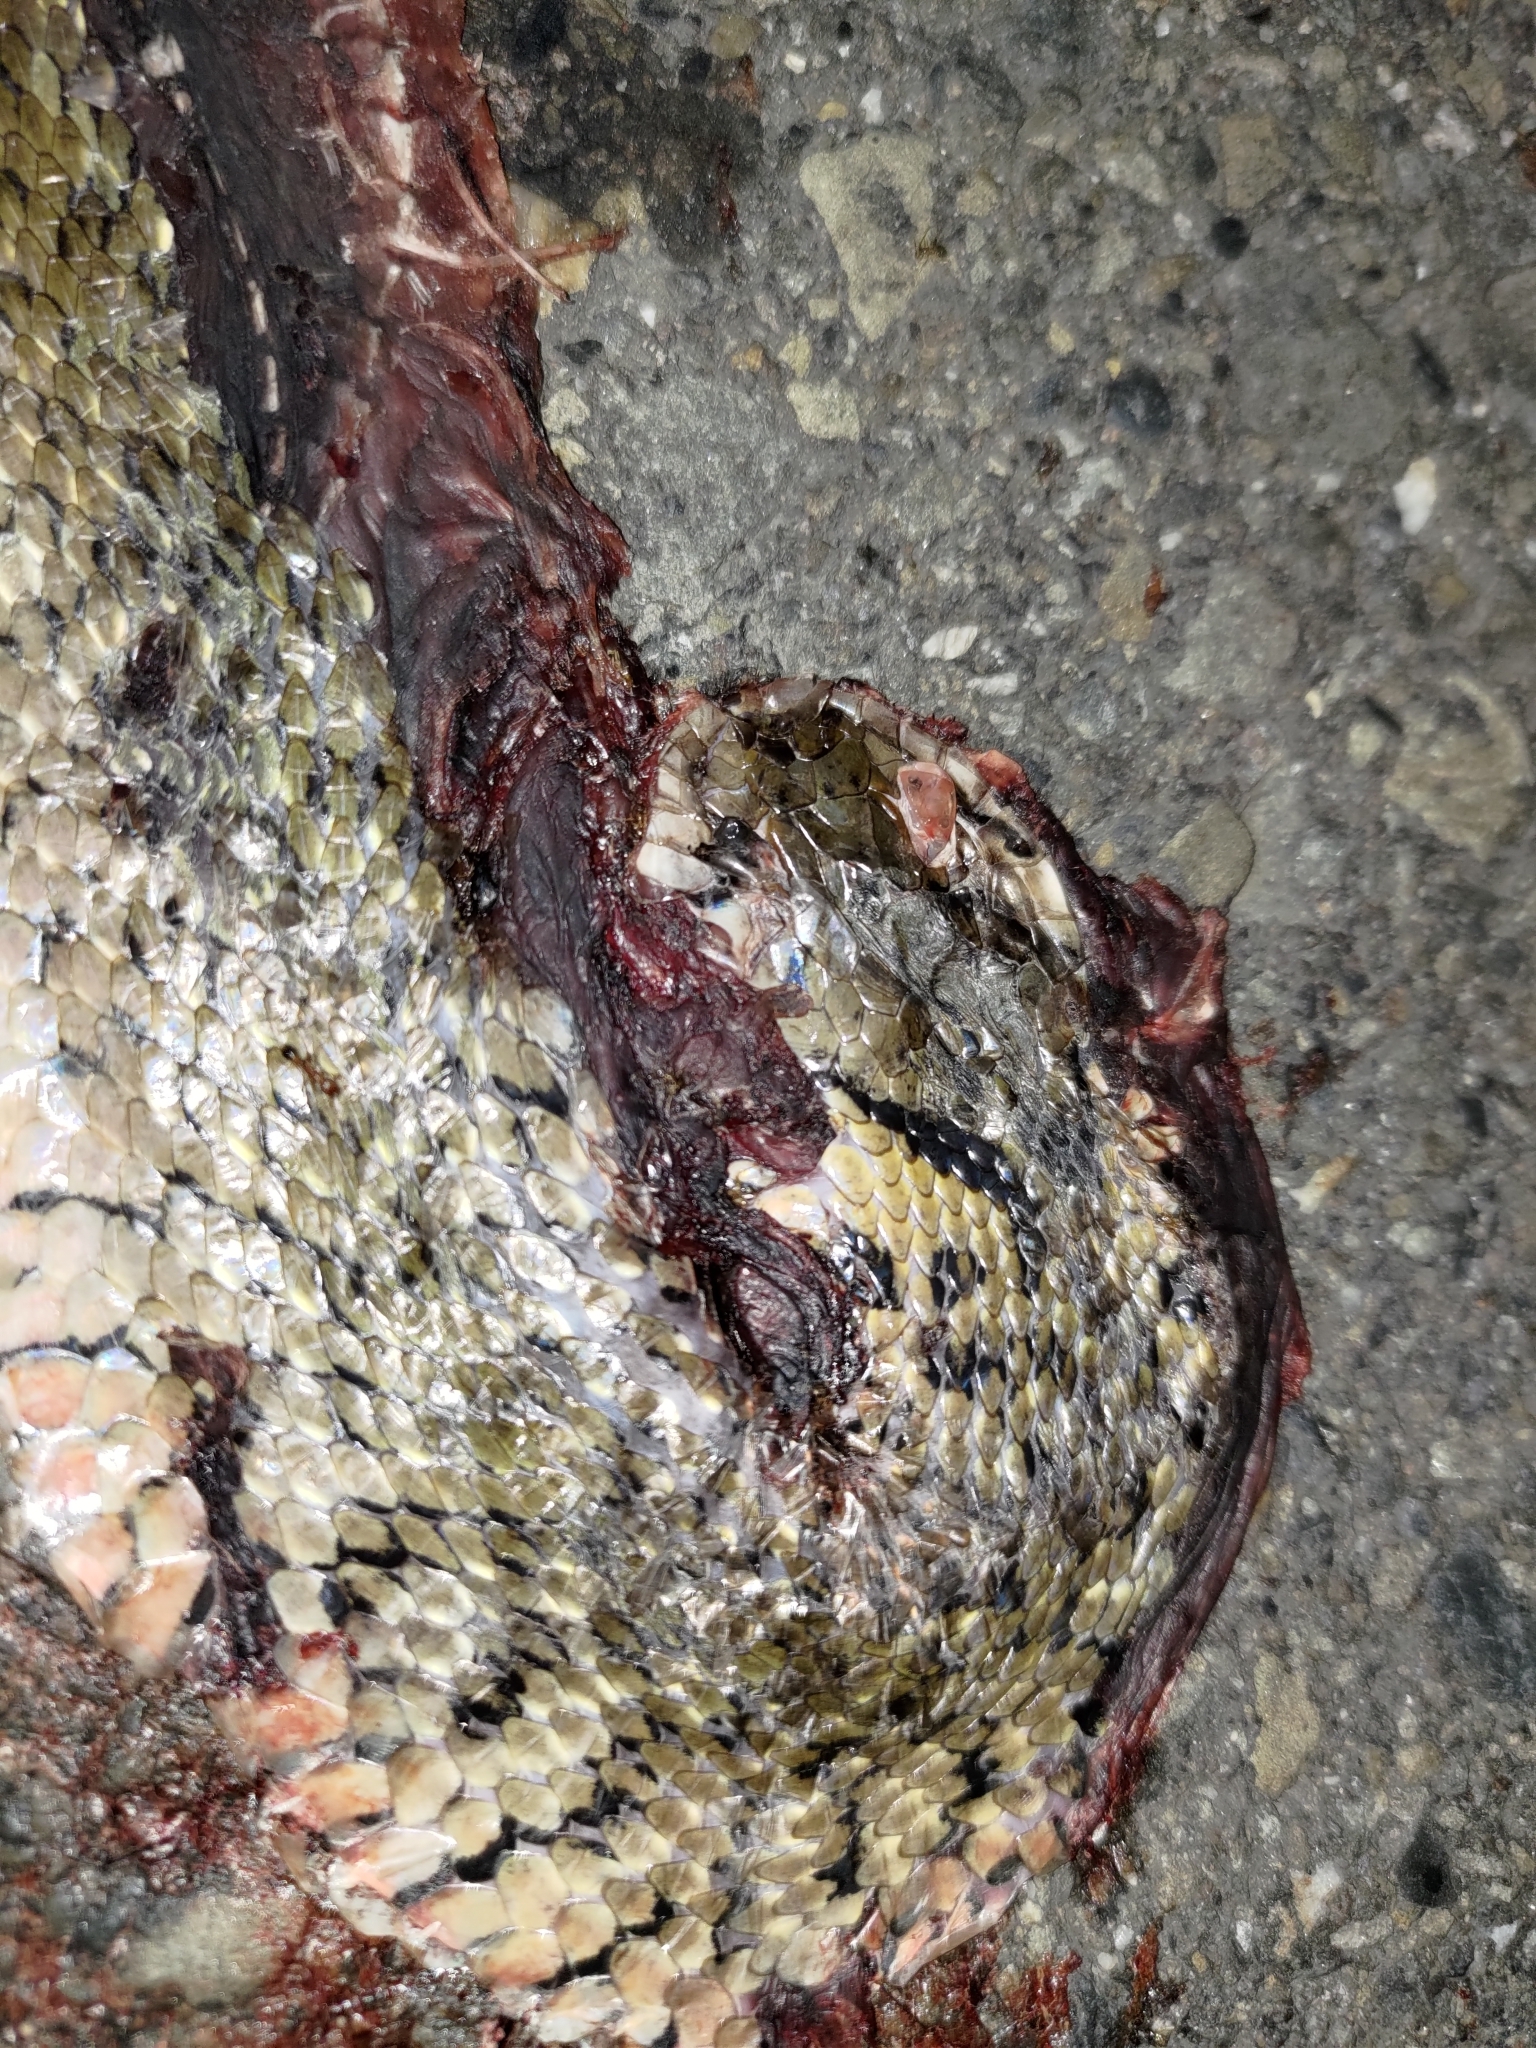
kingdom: Animalia
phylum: Chordata
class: Squamata
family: Colubridae
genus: Fowlea
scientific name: Fowlea flavipunctatus
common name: Yellow-spotted keelback
